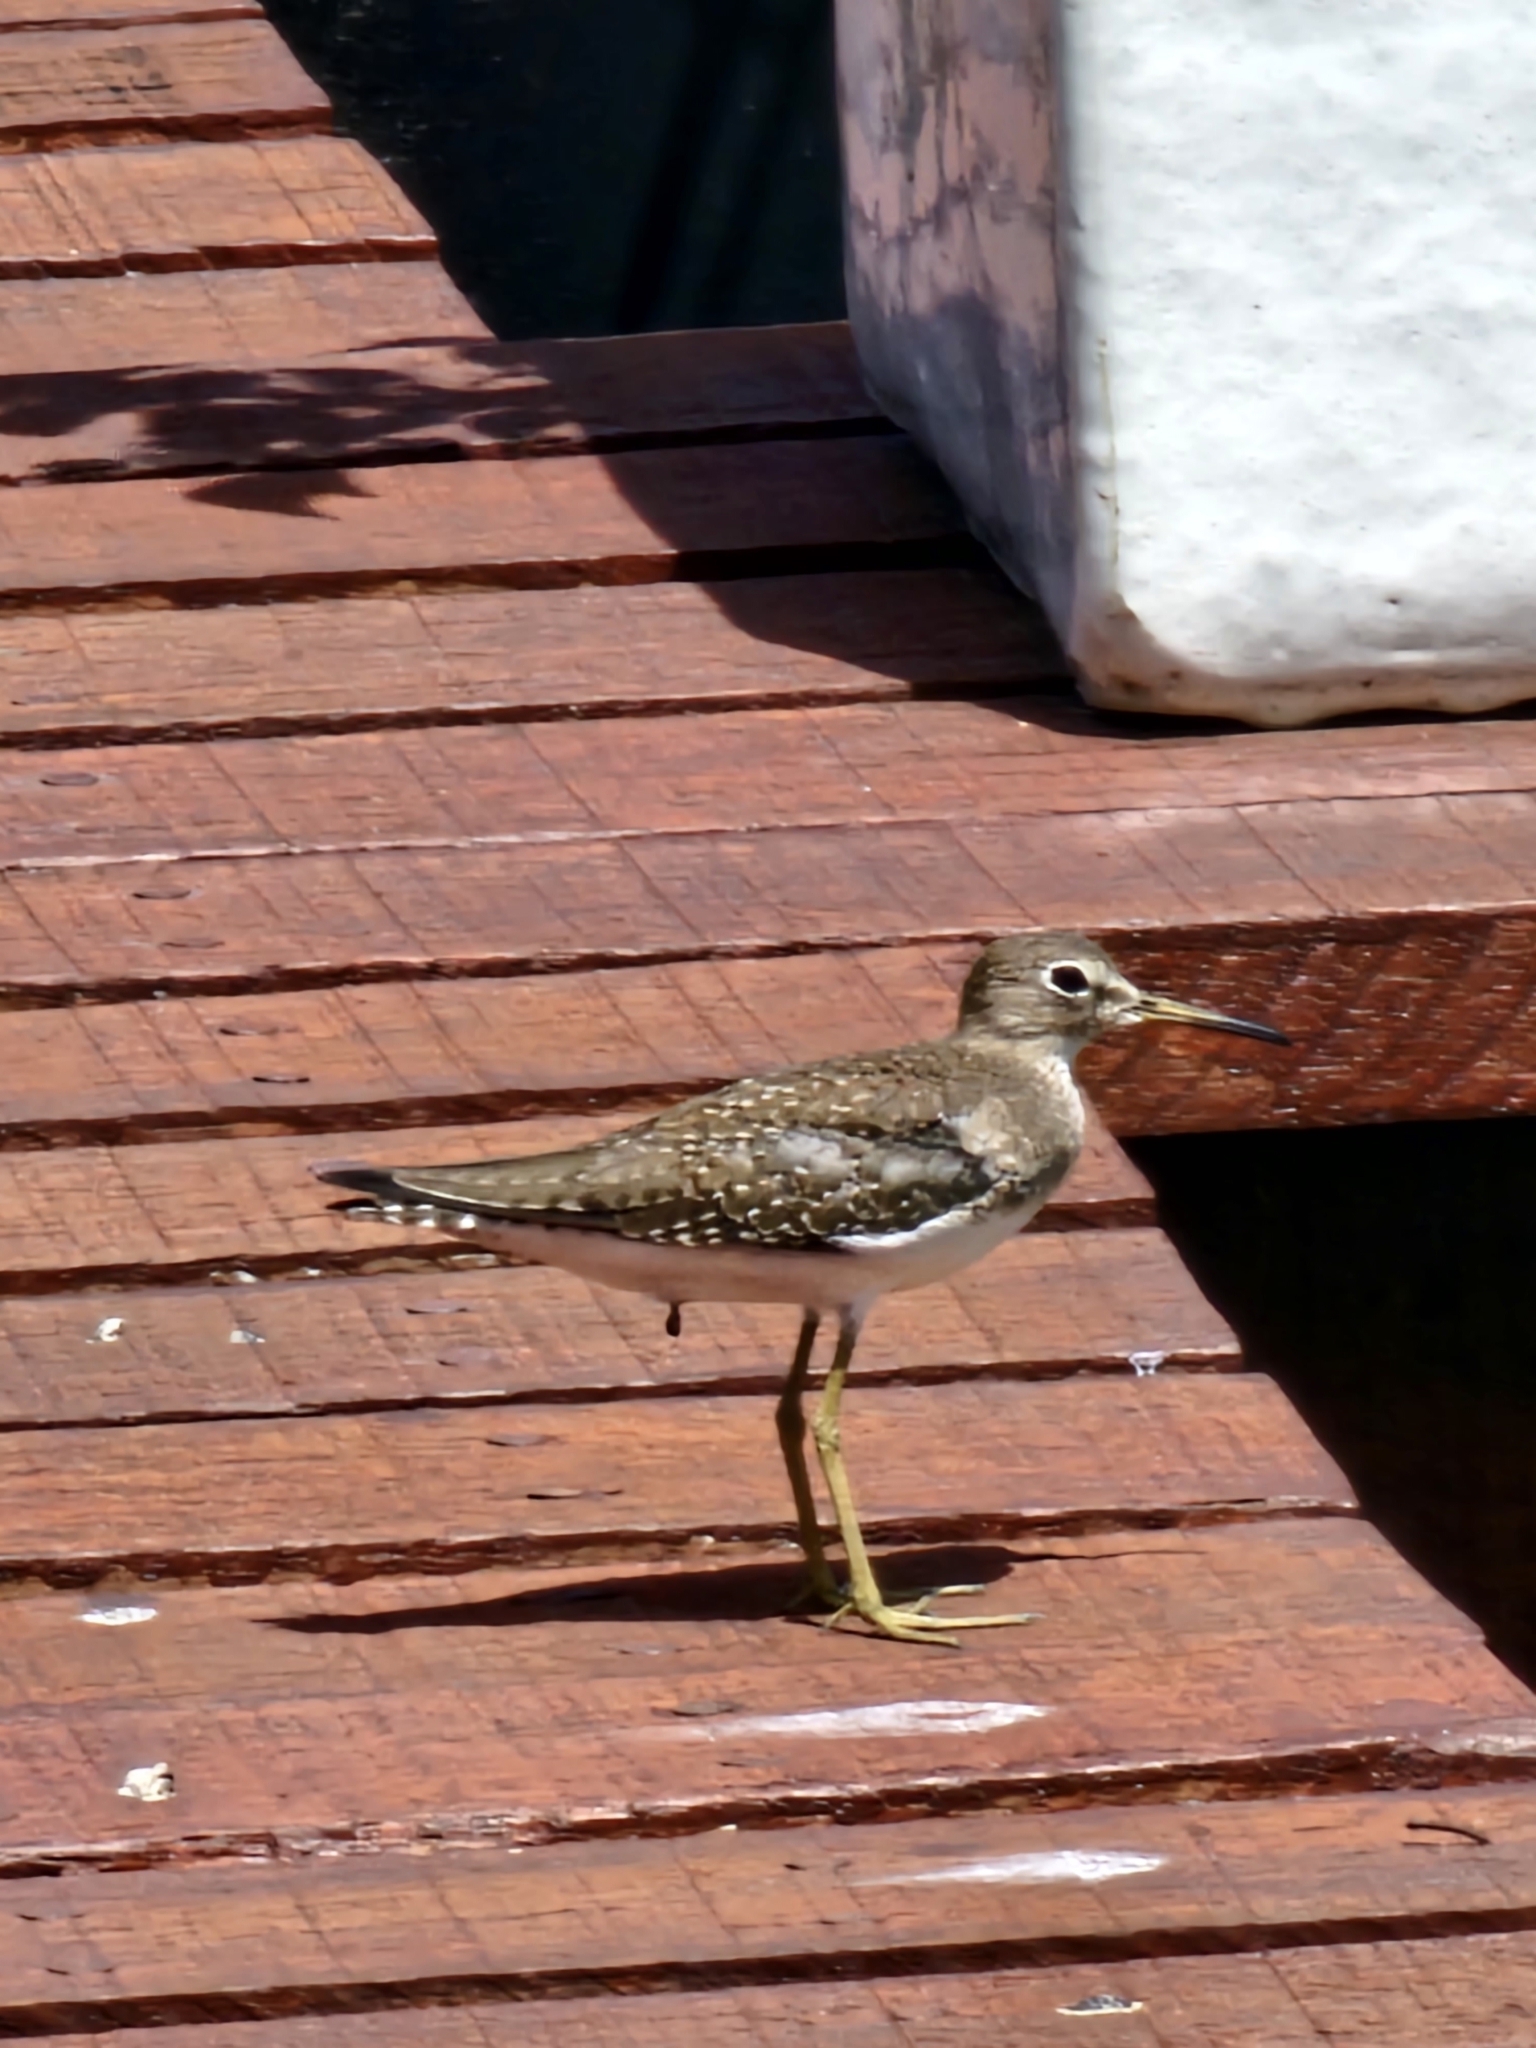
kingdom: Animalia
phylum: Chordata
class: Aves
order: Charadriiformes
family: Scolopacidae
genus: Tringa
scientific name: Tringa solitaria
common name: Solitary sandpiper
